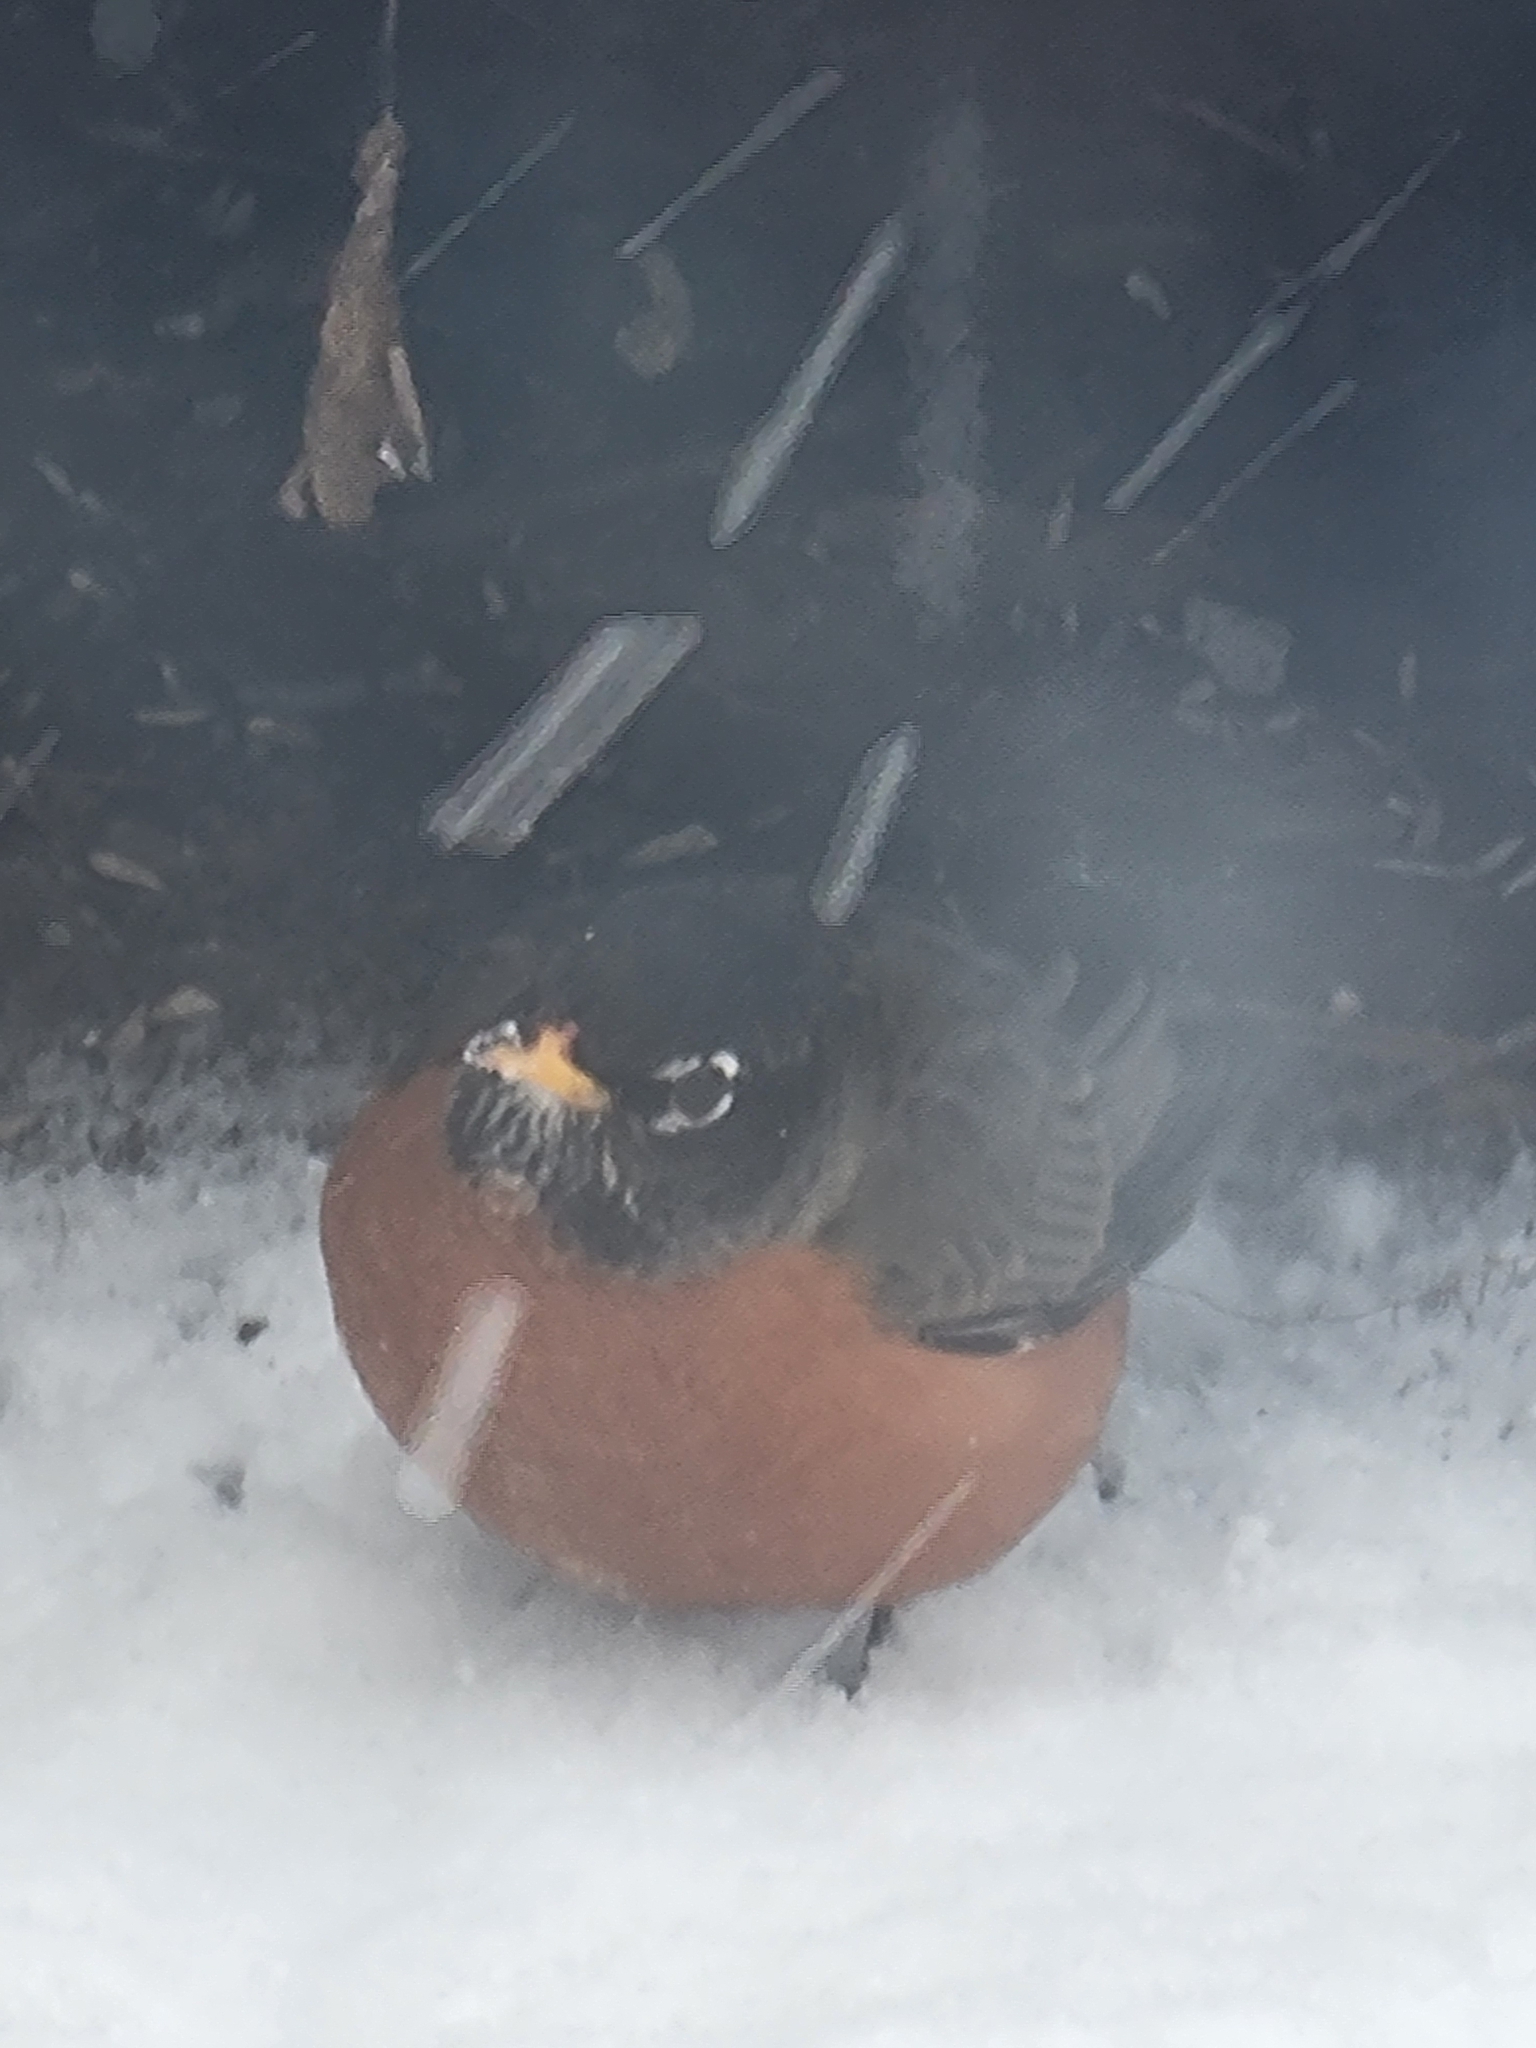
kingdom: Animalia
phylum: Chordata
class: Aves
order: Passeriformes
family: Turdidae
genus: Turdus
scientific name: Turdus migratorius
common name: American robin
